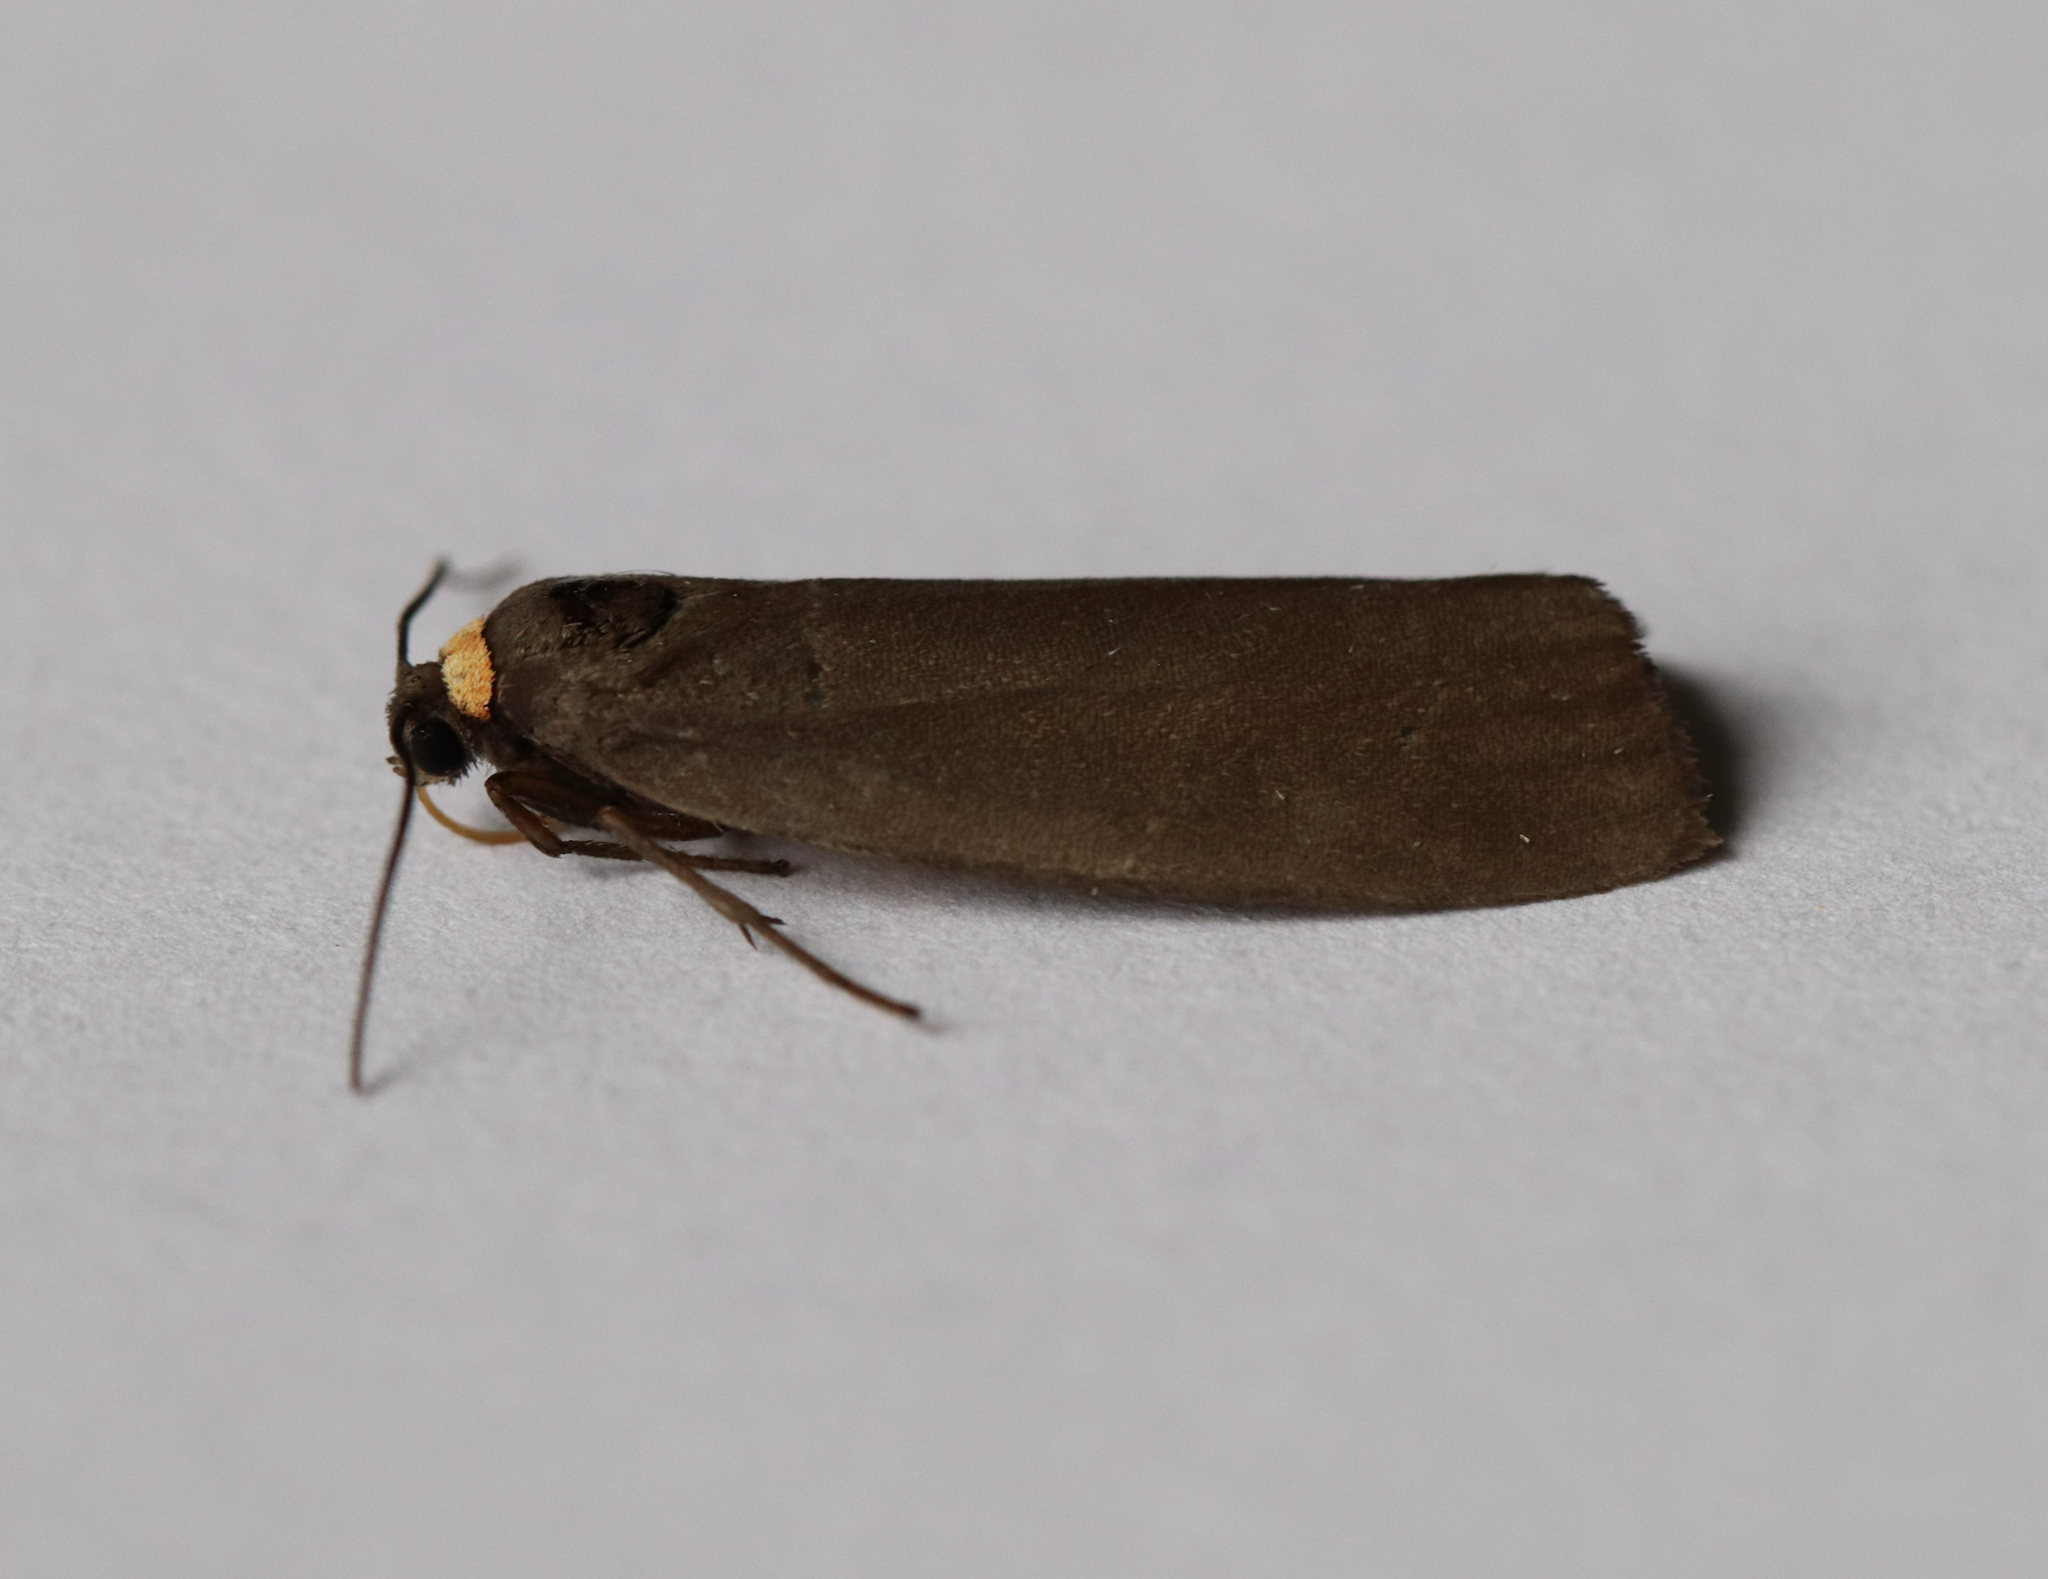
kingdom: Animalia
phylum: Arthropoda
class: Insecta
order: Lepidoptera
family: Erebidae
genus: Atolmis
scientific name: Atolmis rubricollis
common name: Red-necked footman
